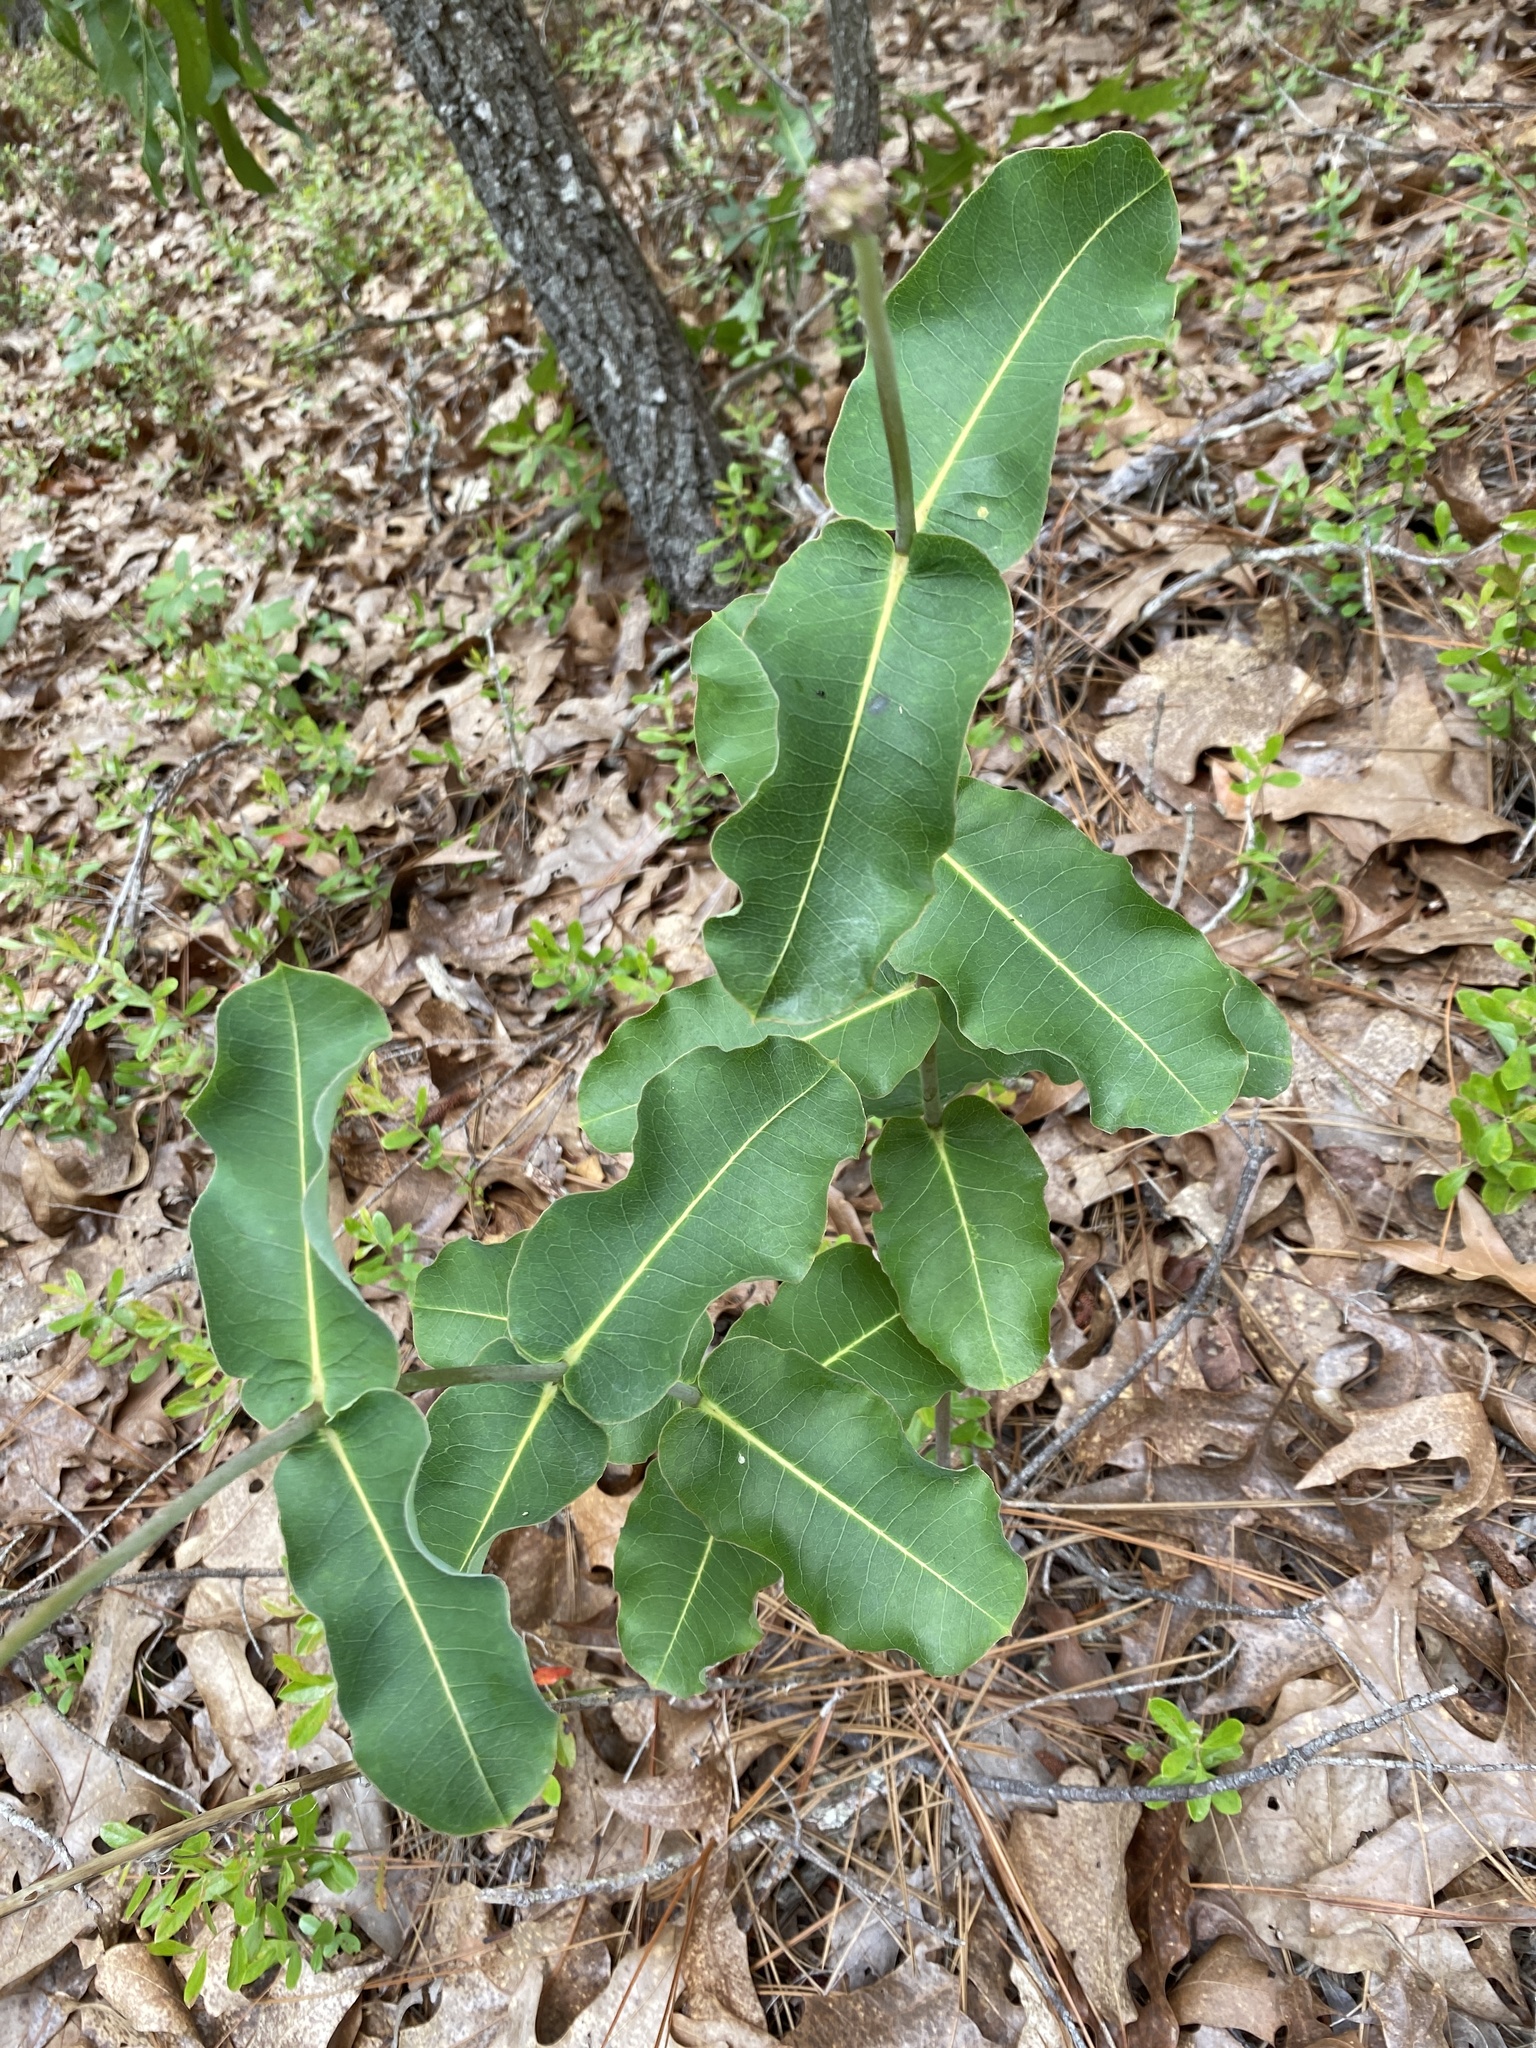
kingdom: Plantae
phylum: Tracheophyta
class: Magnoliopsida
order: Gentianales
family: Apocynaceae
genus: Asclepias
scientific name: Asclepias amplexicaulis
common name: Blunt-leaf milkweed
